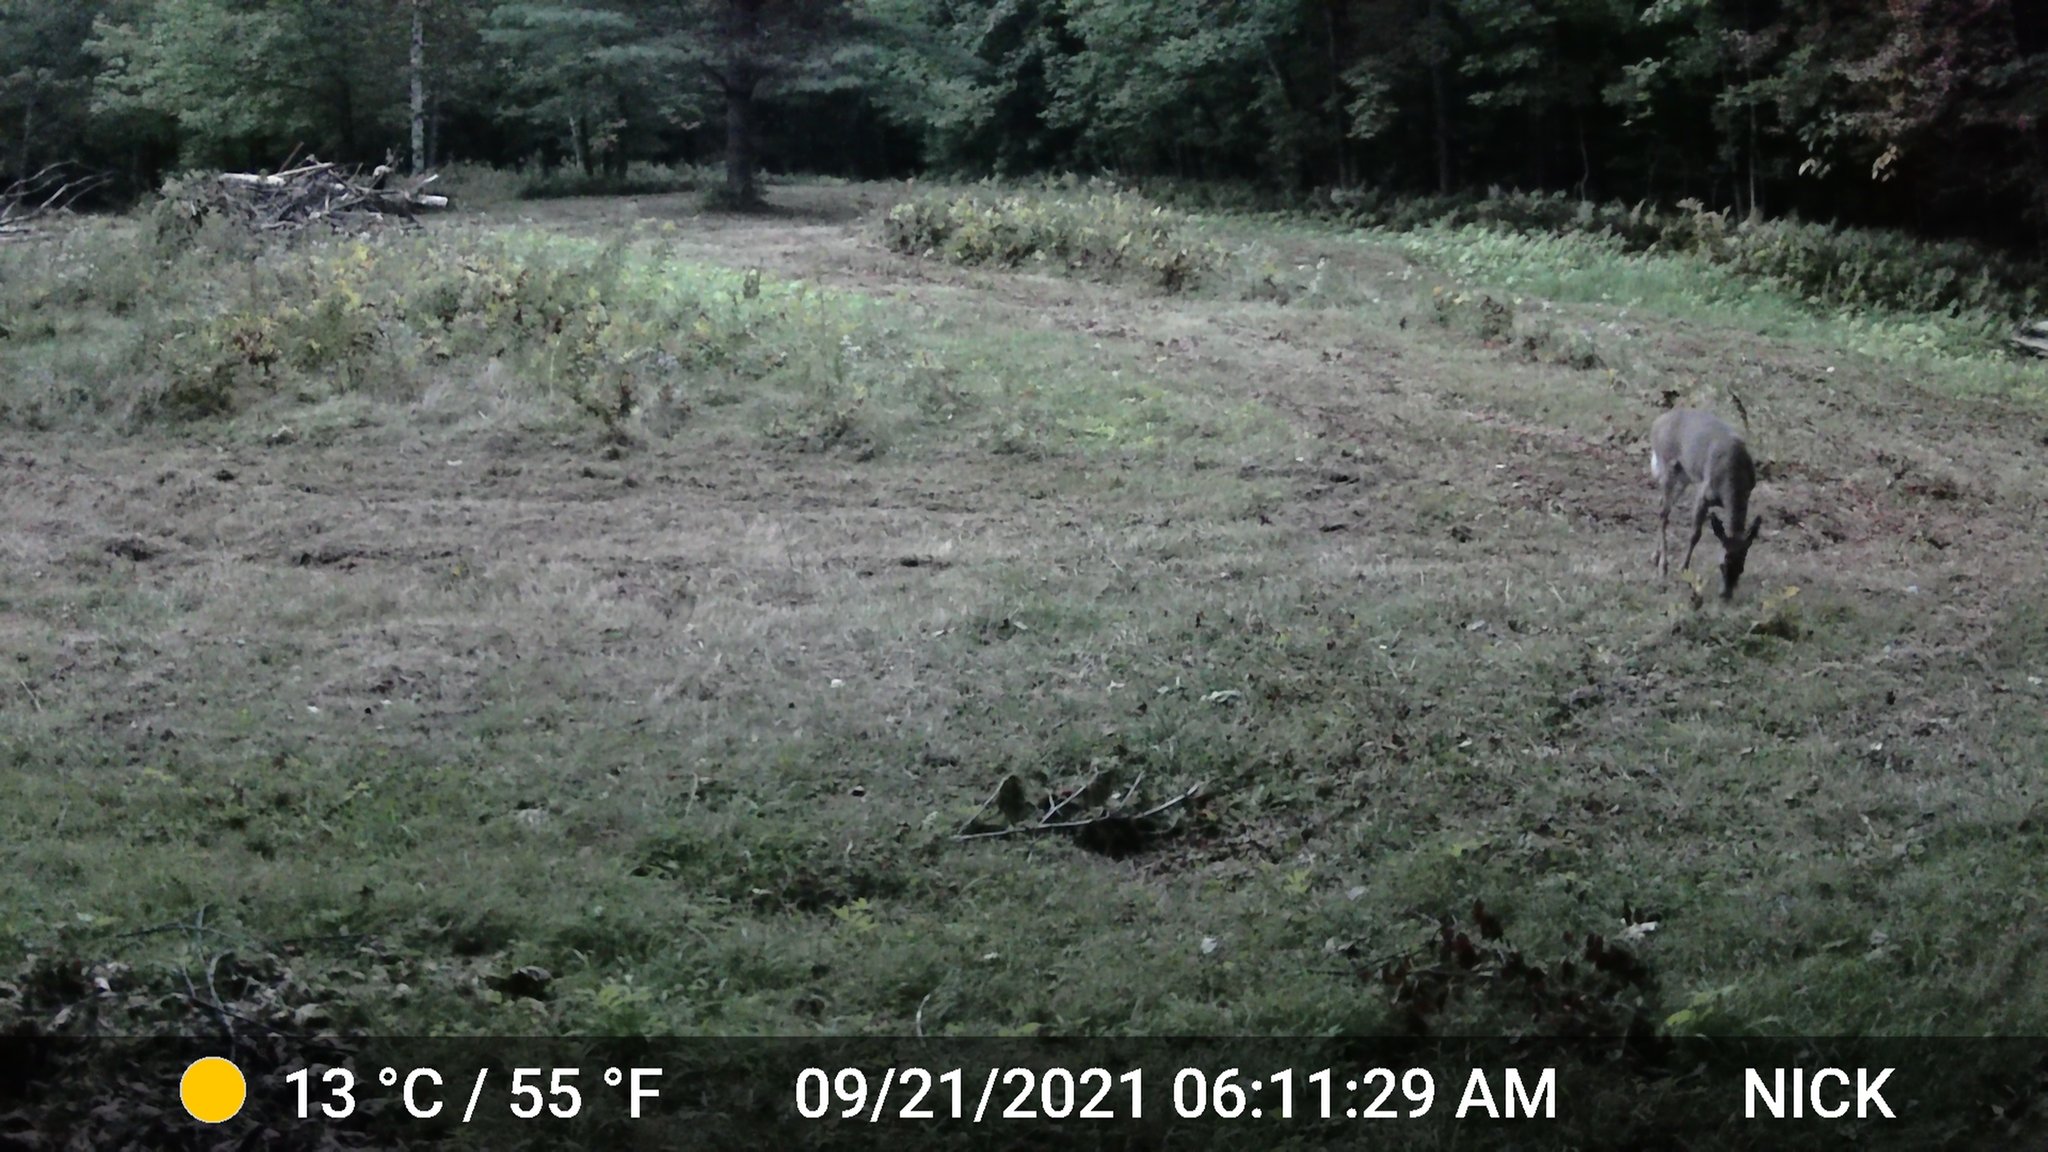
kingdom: Animalia
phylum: Chordata
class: Mammalia
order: Artiodactyla
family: Cervidae
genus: Odocoileus
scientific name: Odocoileus virginianus
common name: White-tailed deer
